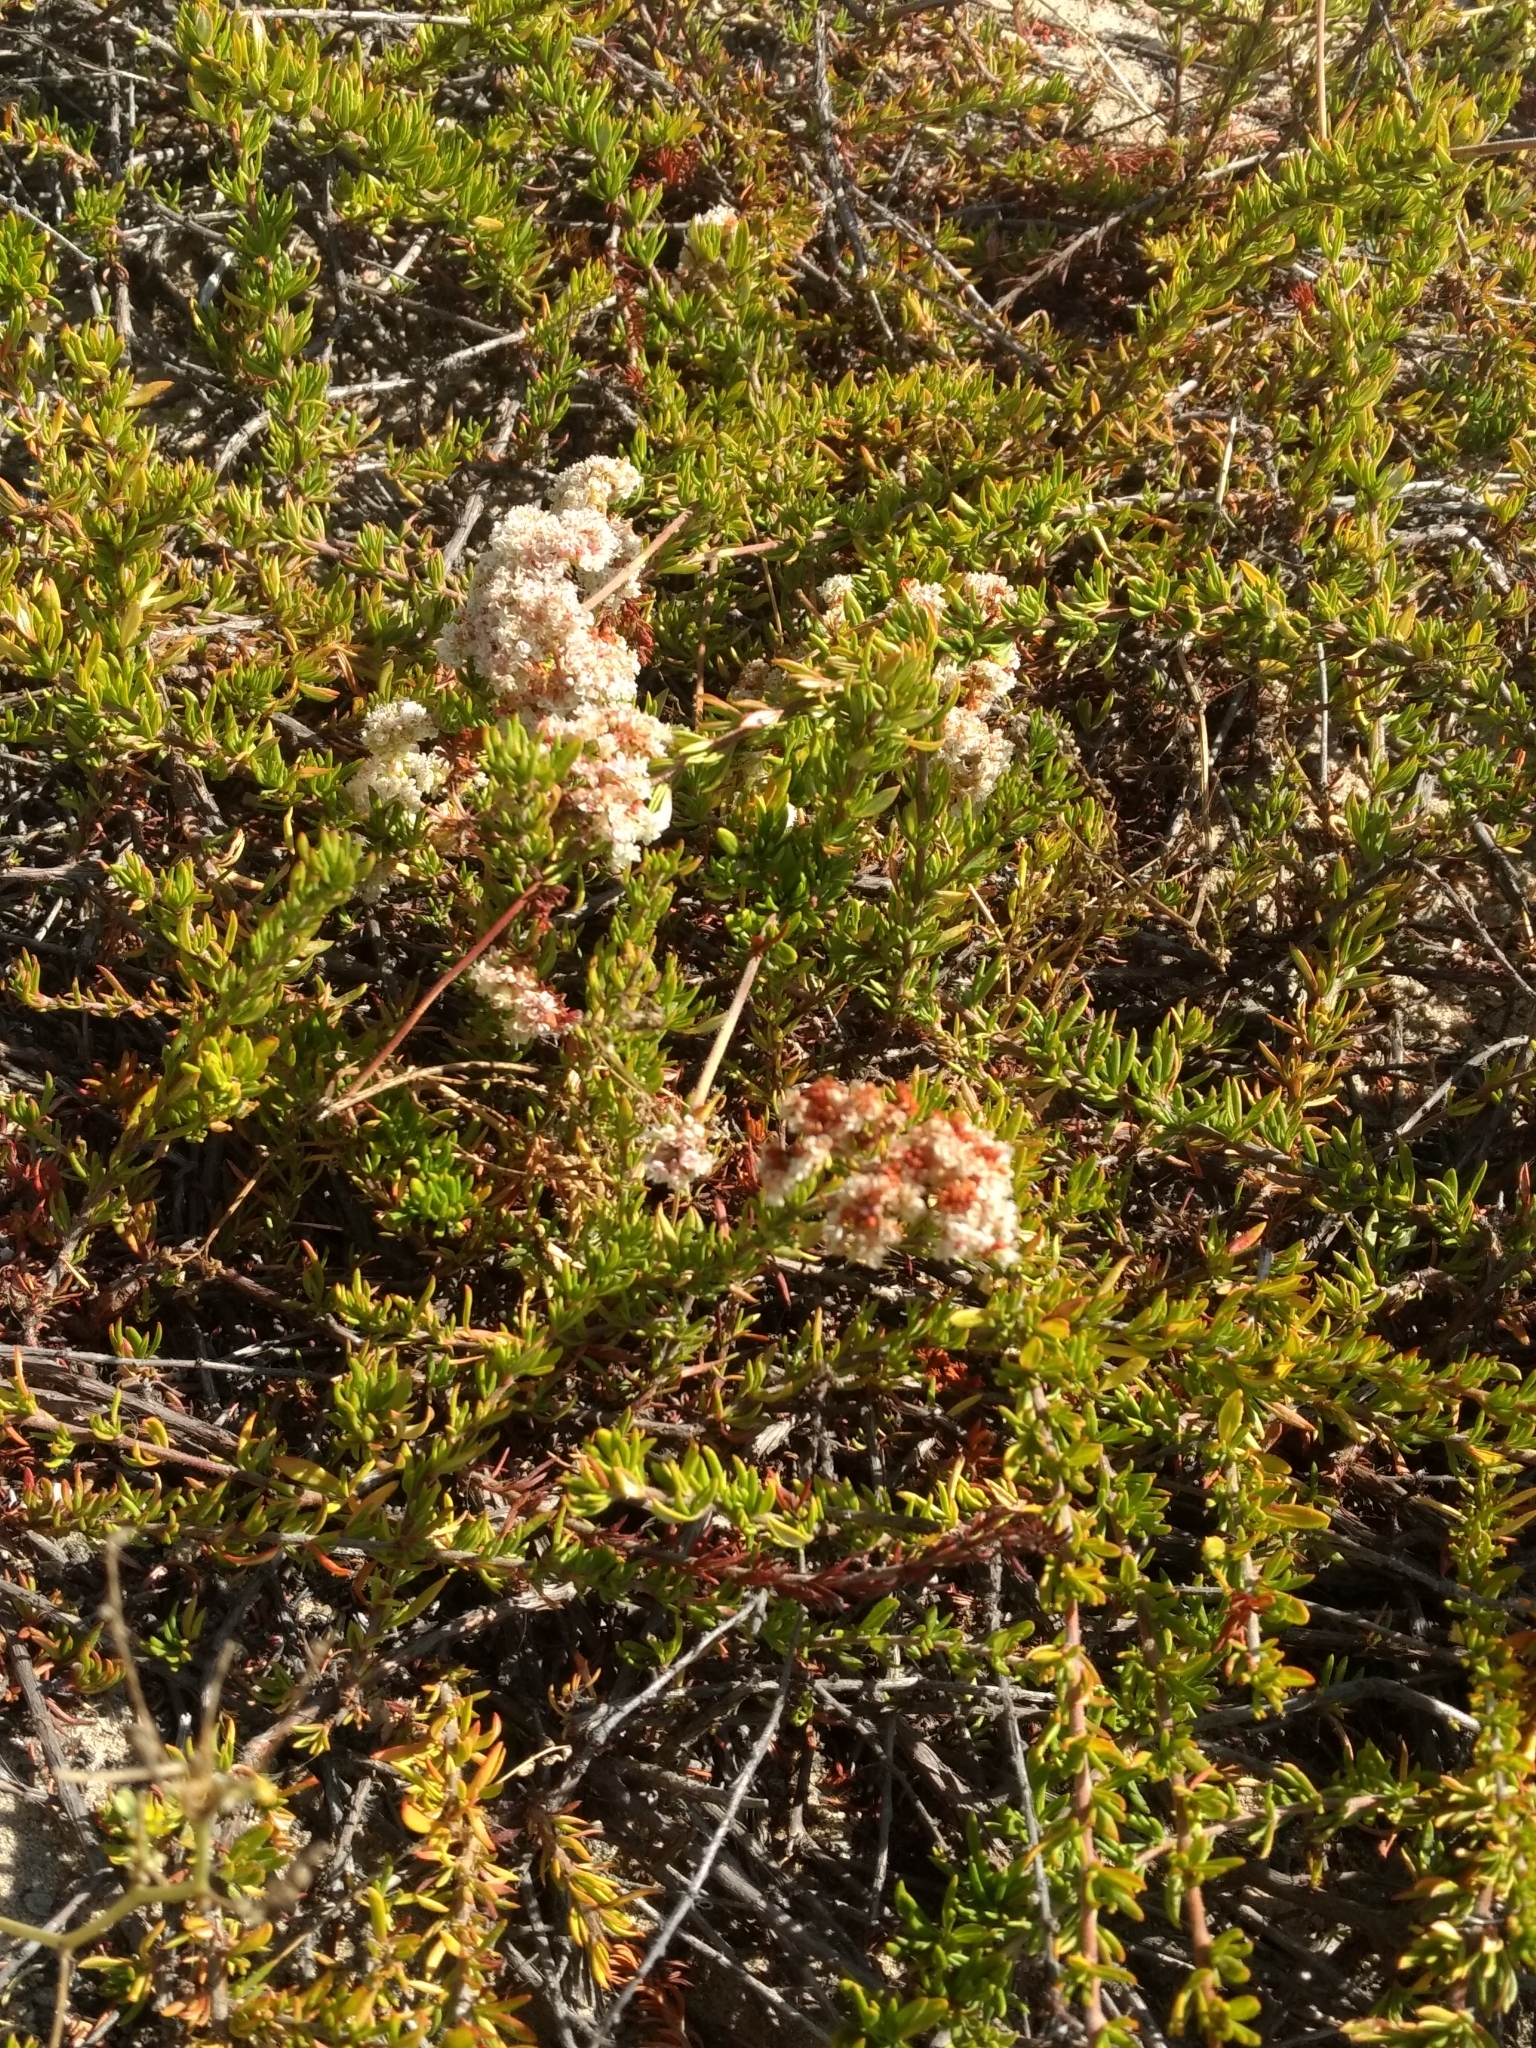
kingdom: Plantae
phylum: Tracheophyta
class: Magnoliopsida
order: Caryophyllales
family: Polygonaceae
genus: Eriogonum
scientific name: Eriogonum fasciculatum
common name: California wild buckwheat
